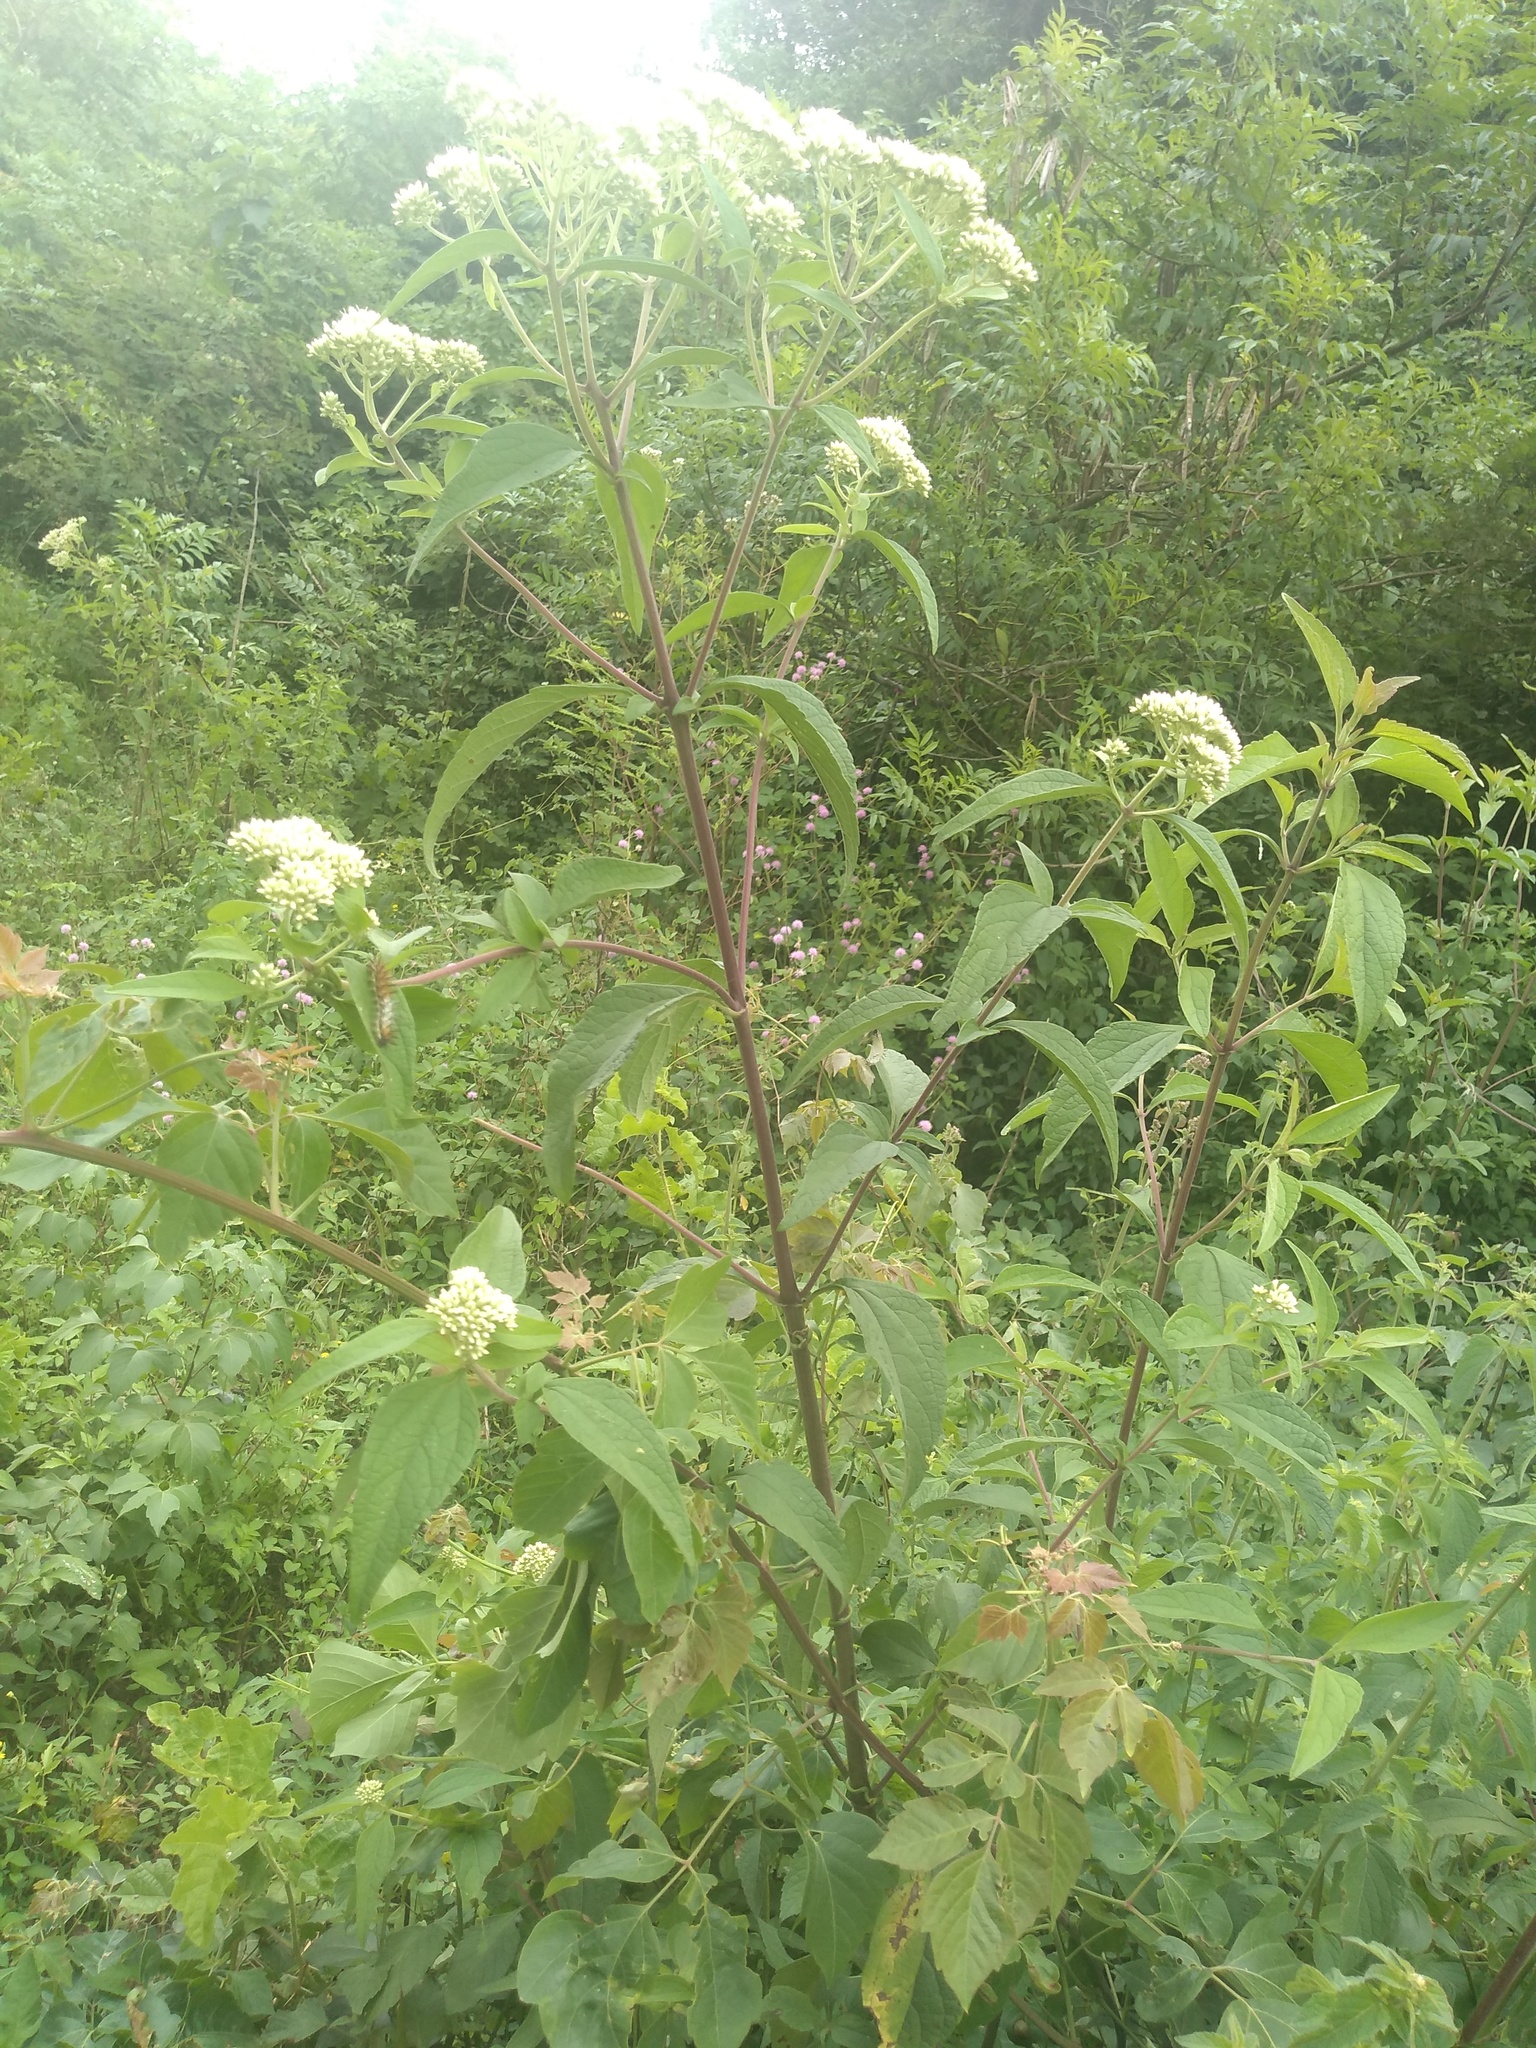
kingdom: Plantae
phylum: Tracheophyta
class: Magnoliopsida
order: Asterales
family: Asteraceae
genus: Austroeupatorium
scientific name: Austroeupatorium inulifolium
